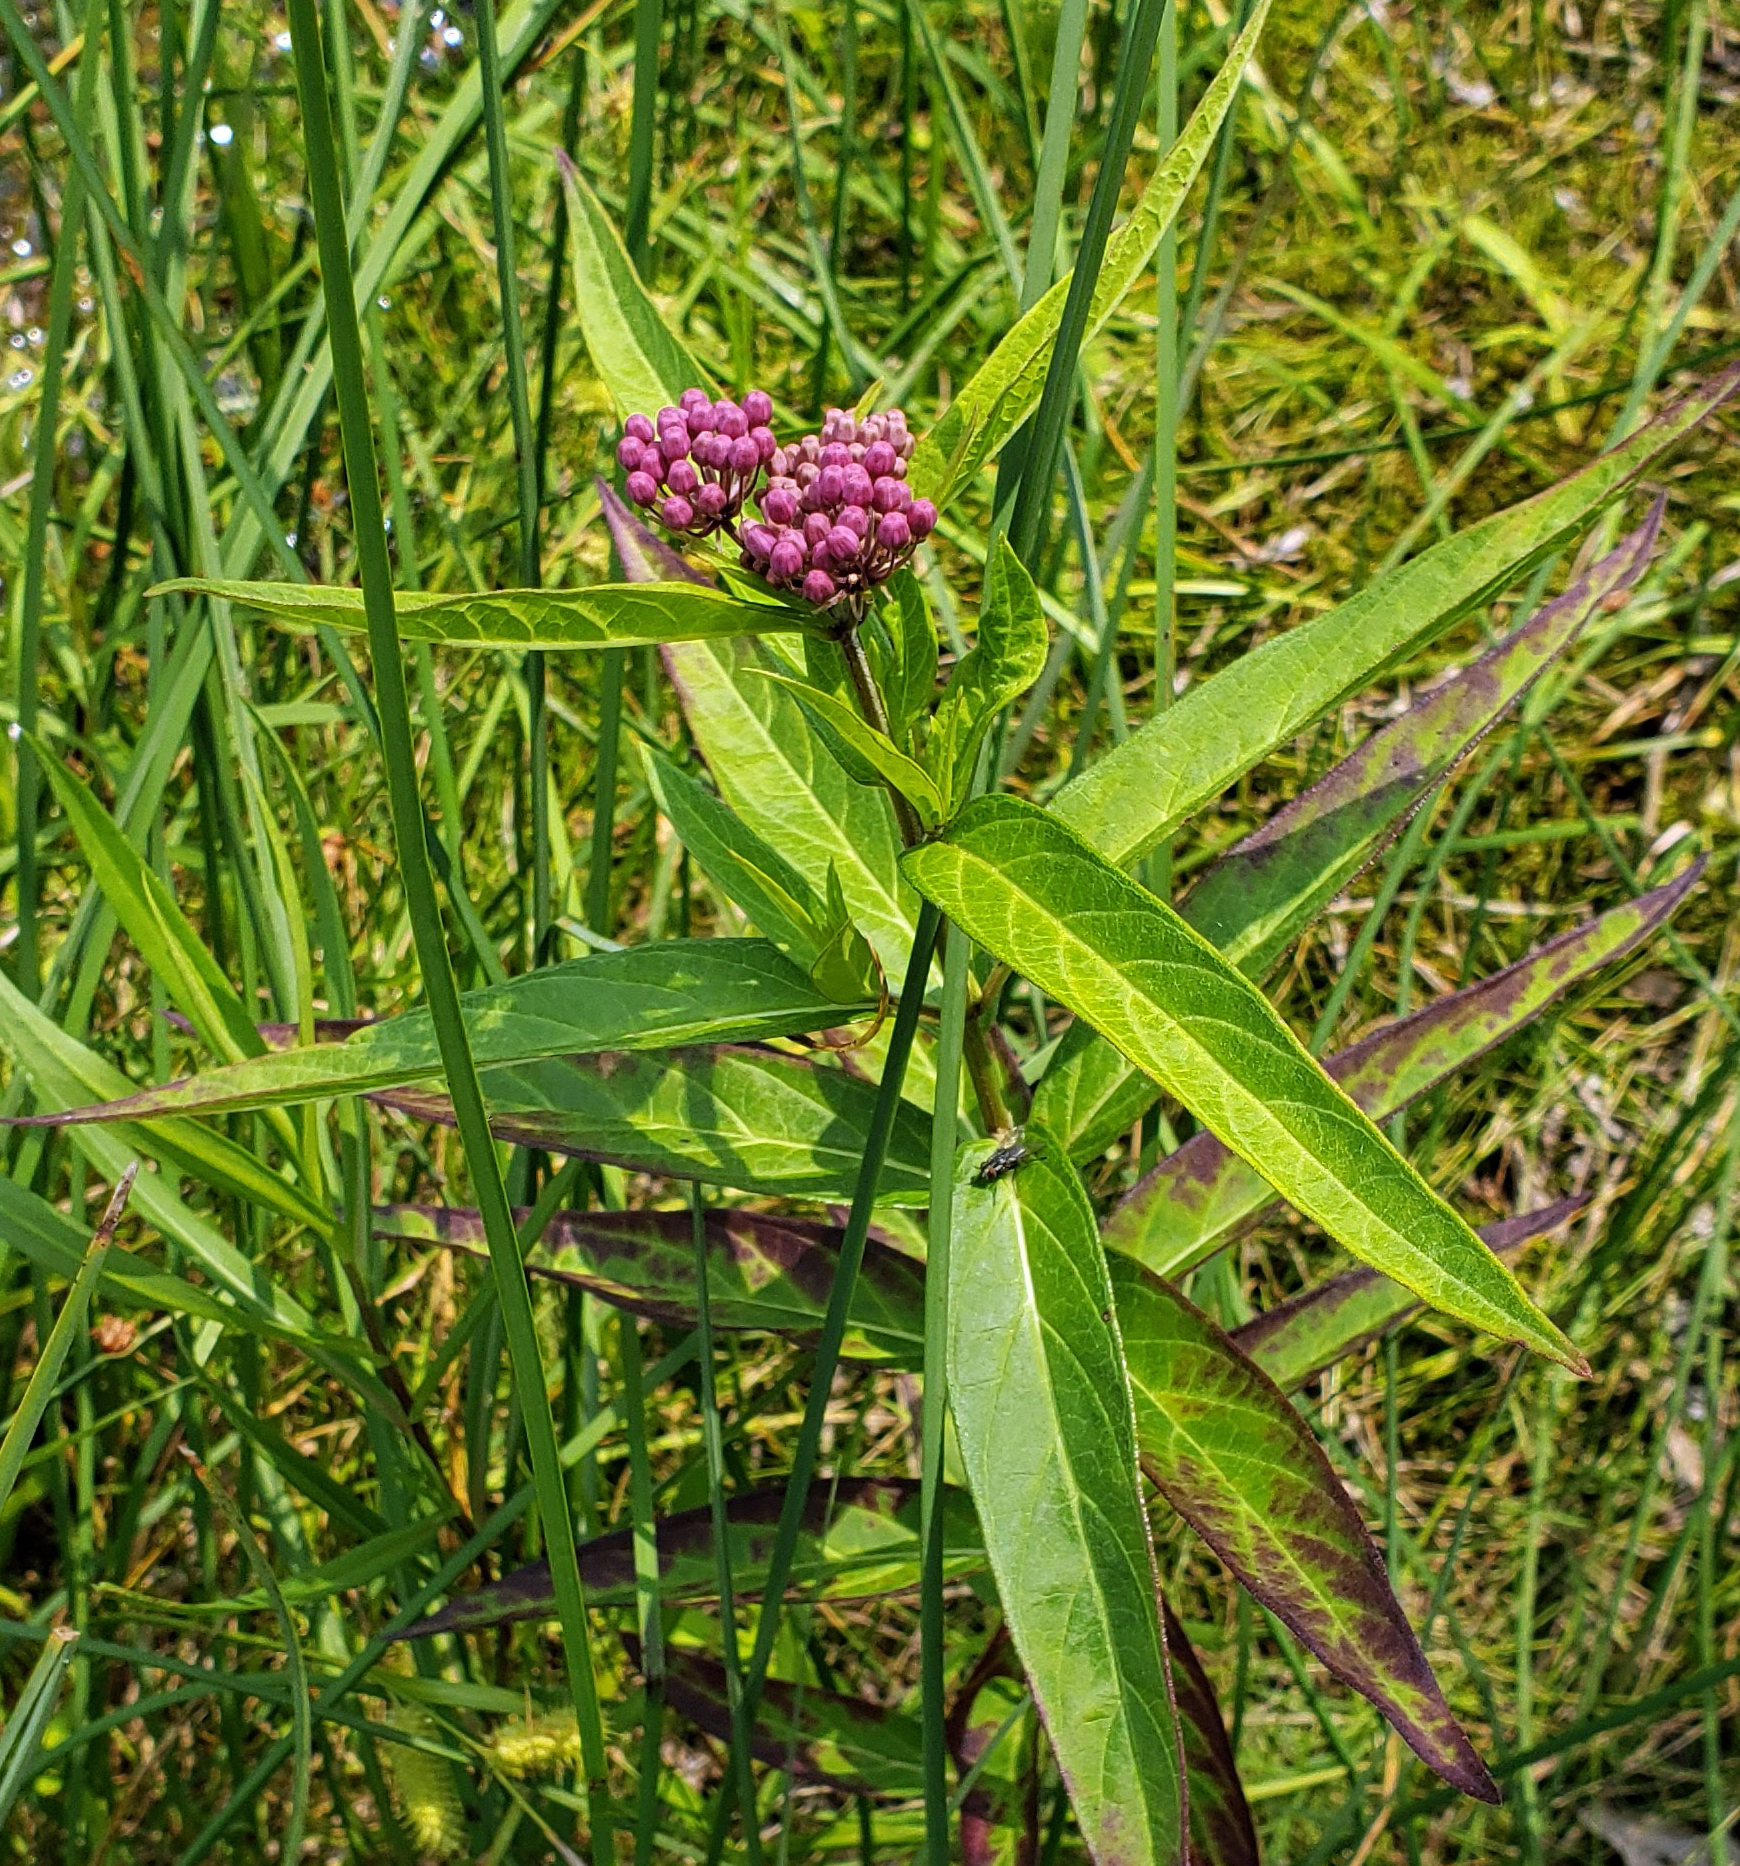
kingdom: Plantae
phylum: Tracheophyta
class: Magnoliopsida
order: Gentianales
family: Apocynaceae
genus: Asclepias
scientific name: Asclepias incarnata
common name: Swamp milkweed
